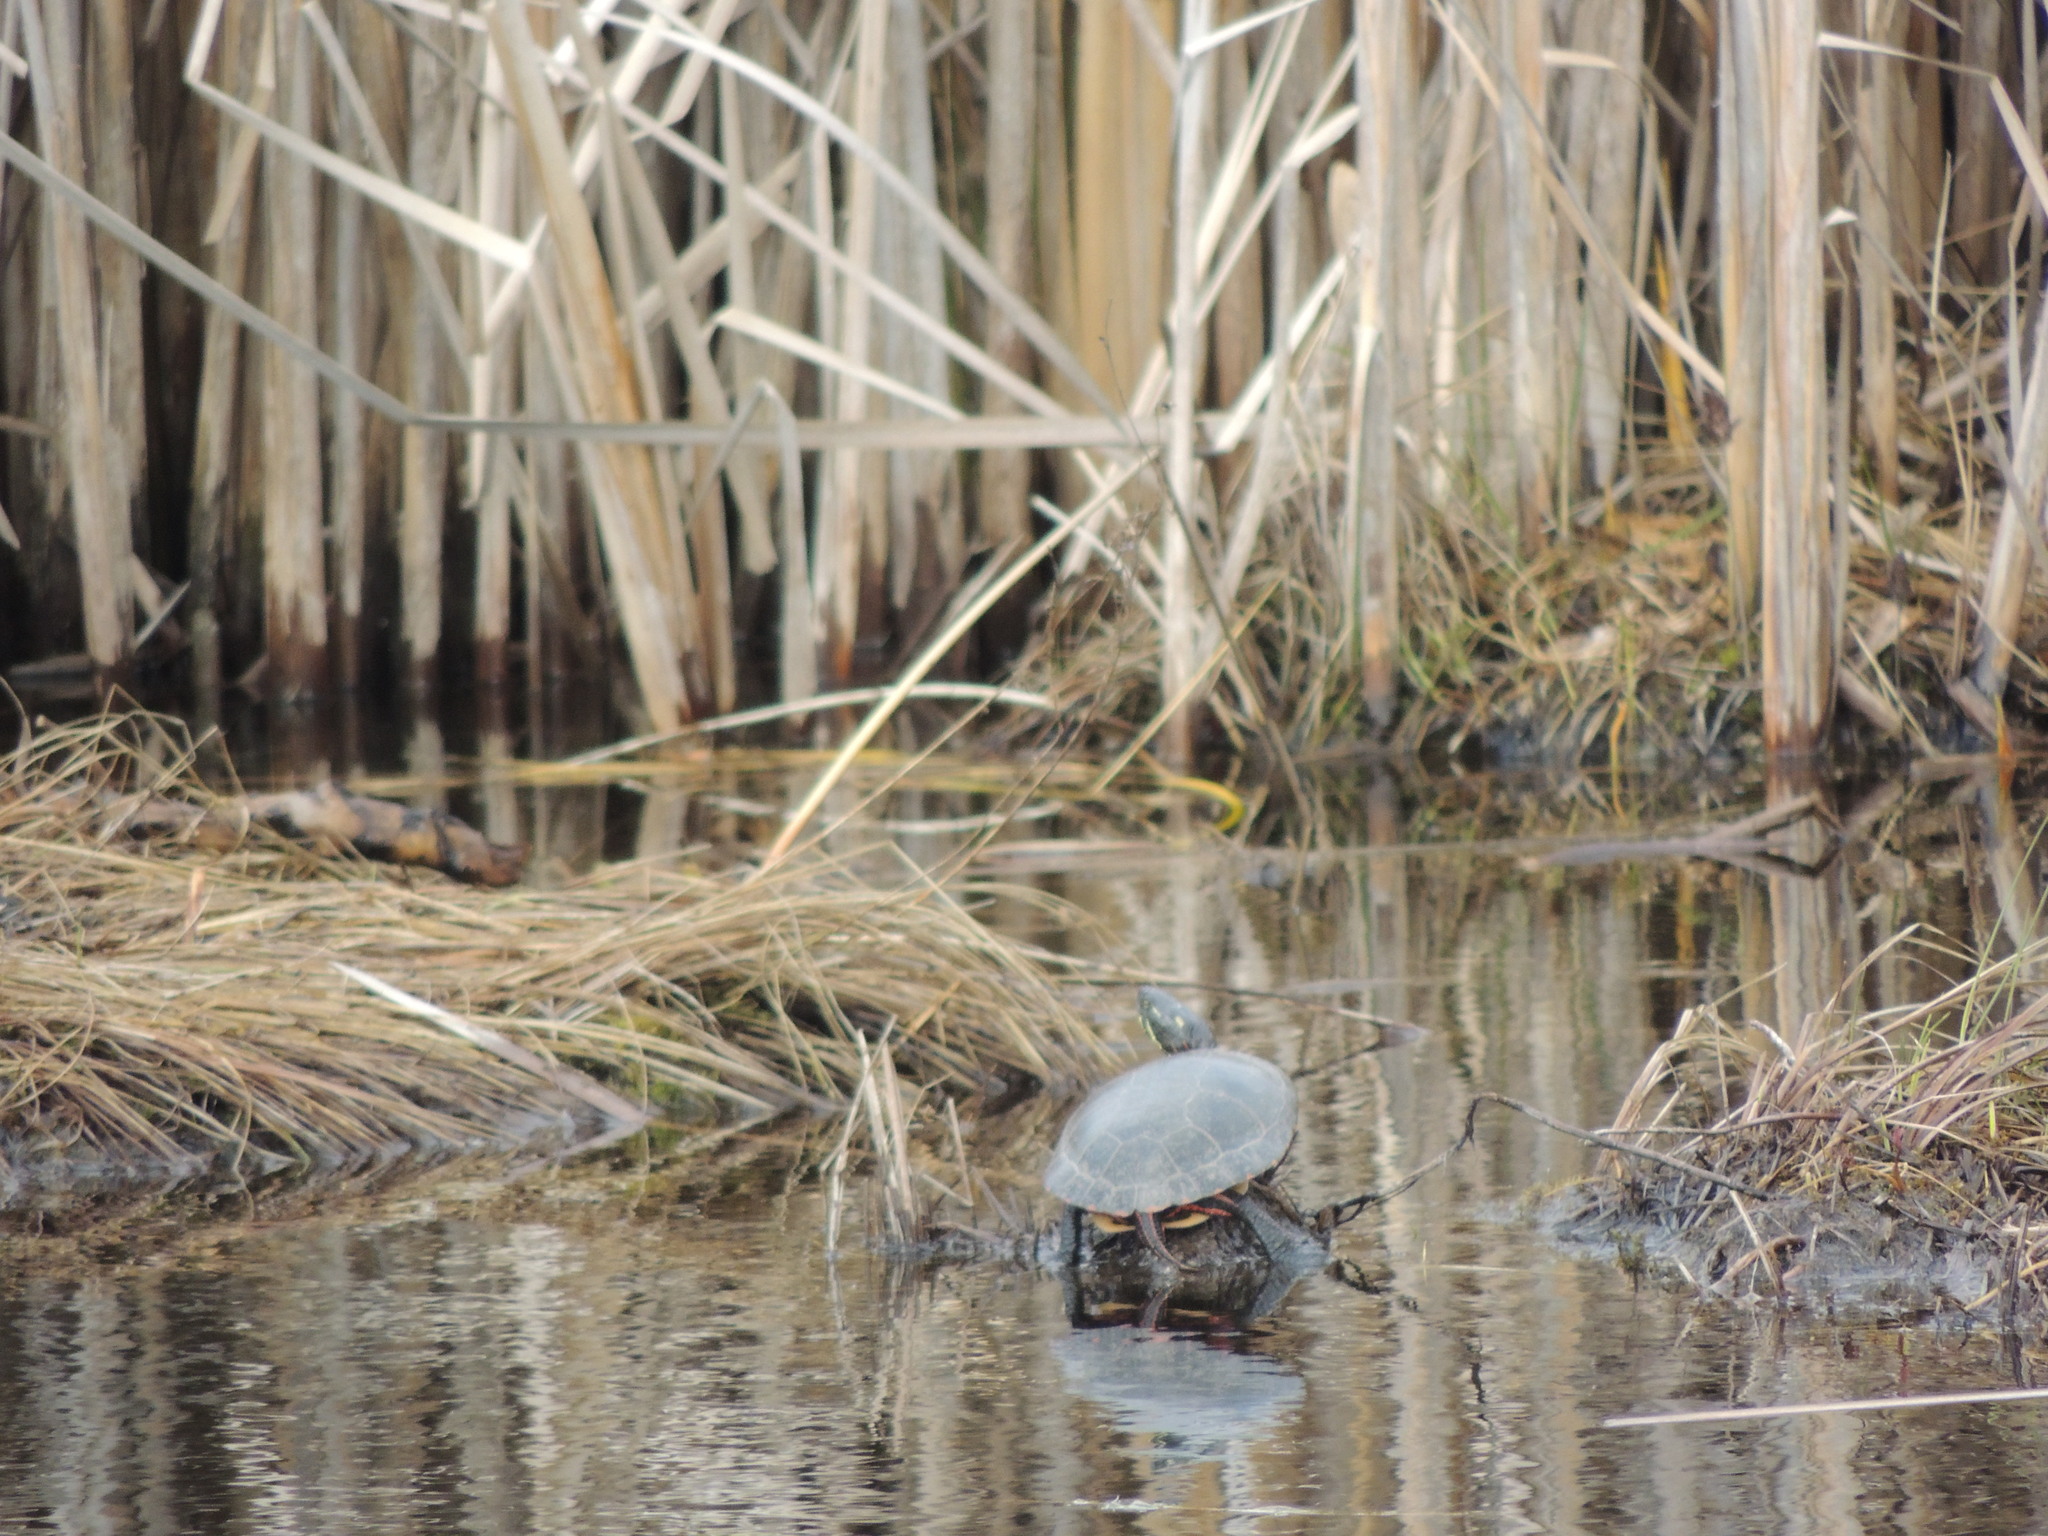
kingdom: Animalia
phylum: Chordata
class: Testudines
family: Emydidae
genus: Chrysemys
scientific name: Chrysemys picta
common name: Painted turtle
